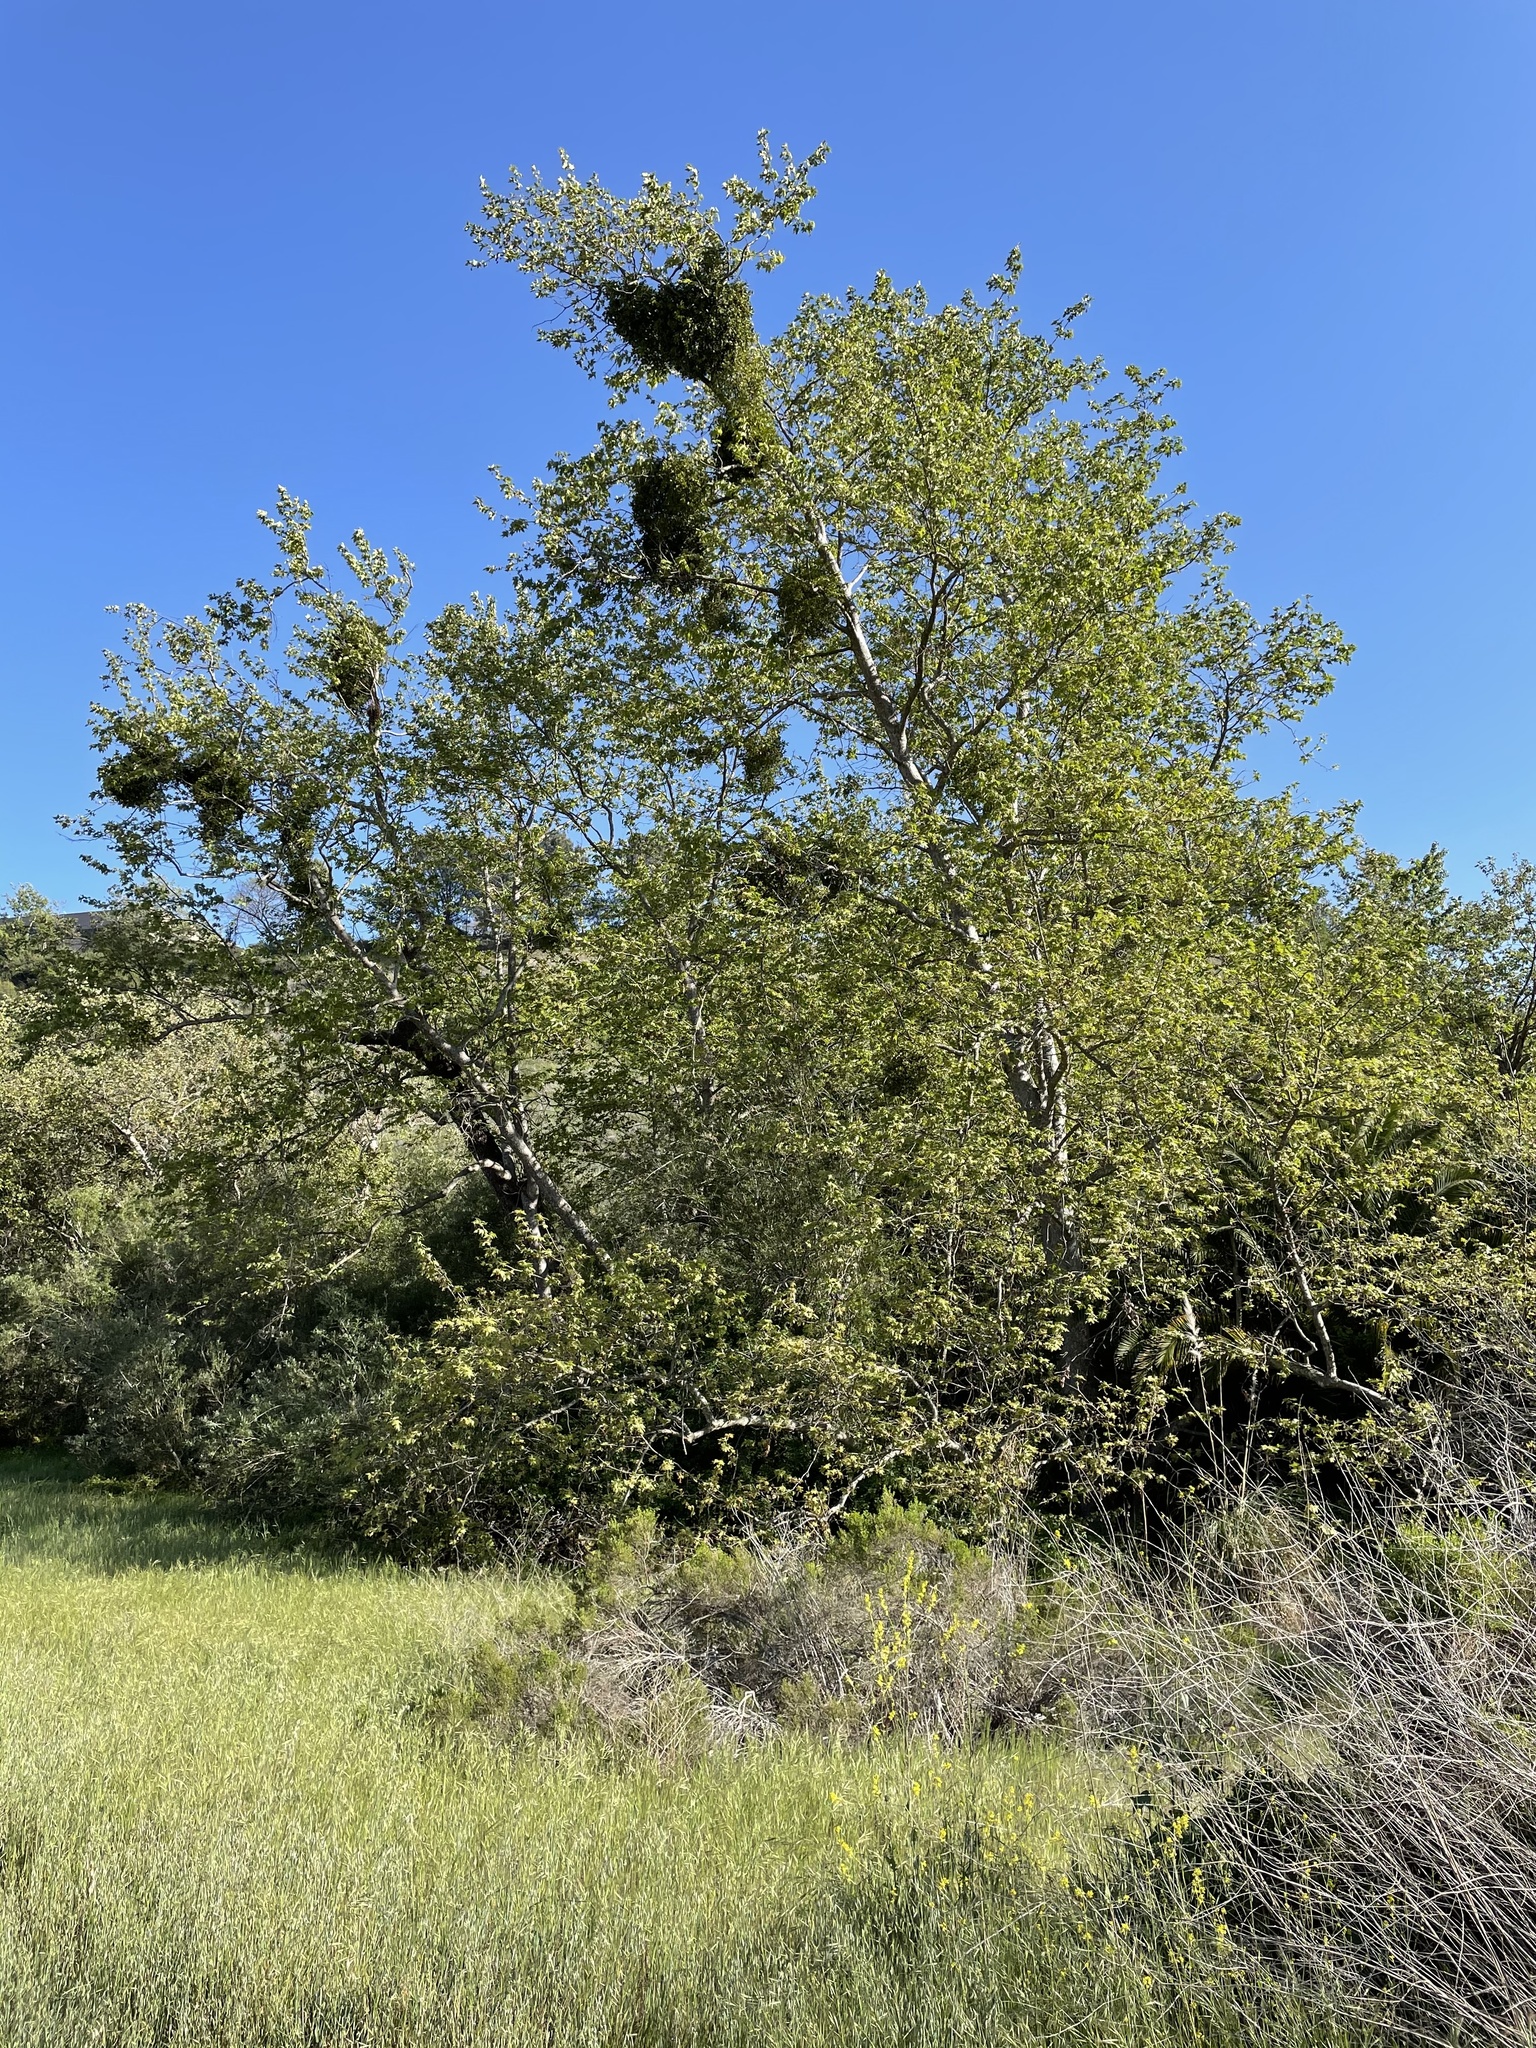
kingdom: Plantae
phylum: Tracheophyta
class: Magnoliopsida
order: Proteales
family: Platanaceae
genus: Platanus
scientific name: Platanus racemosa
